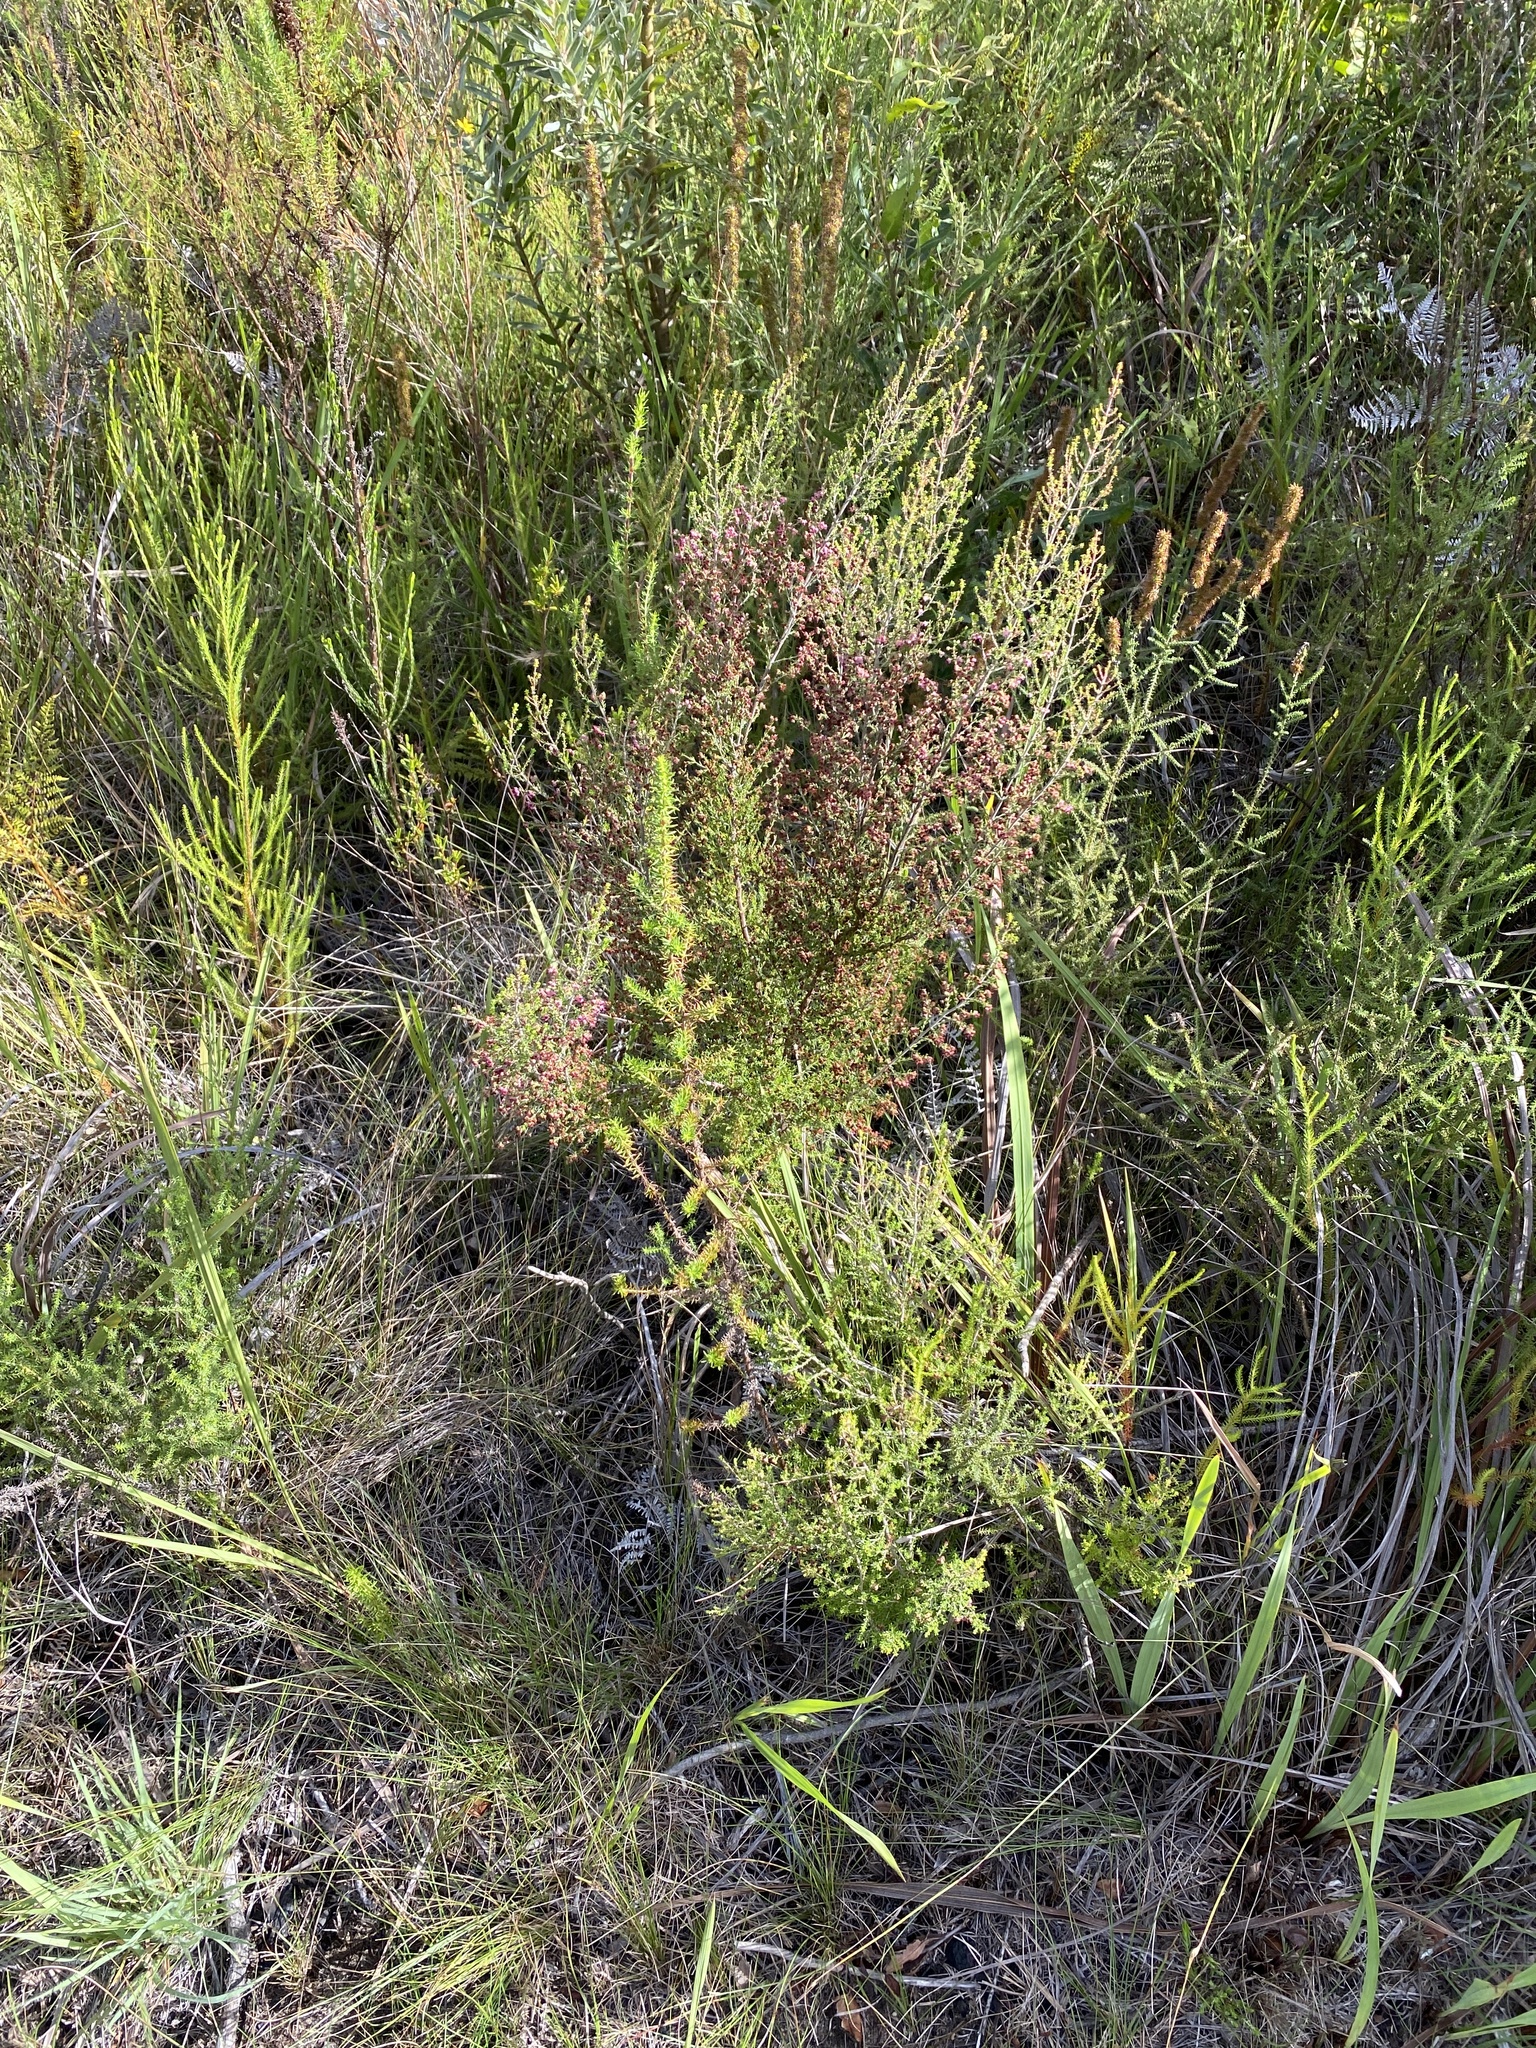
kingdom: Plantae
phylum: Tracheophyta
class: Magnoliopsida
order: Ericales
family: Ericaceae
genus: Erica
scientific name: Erica peltata
